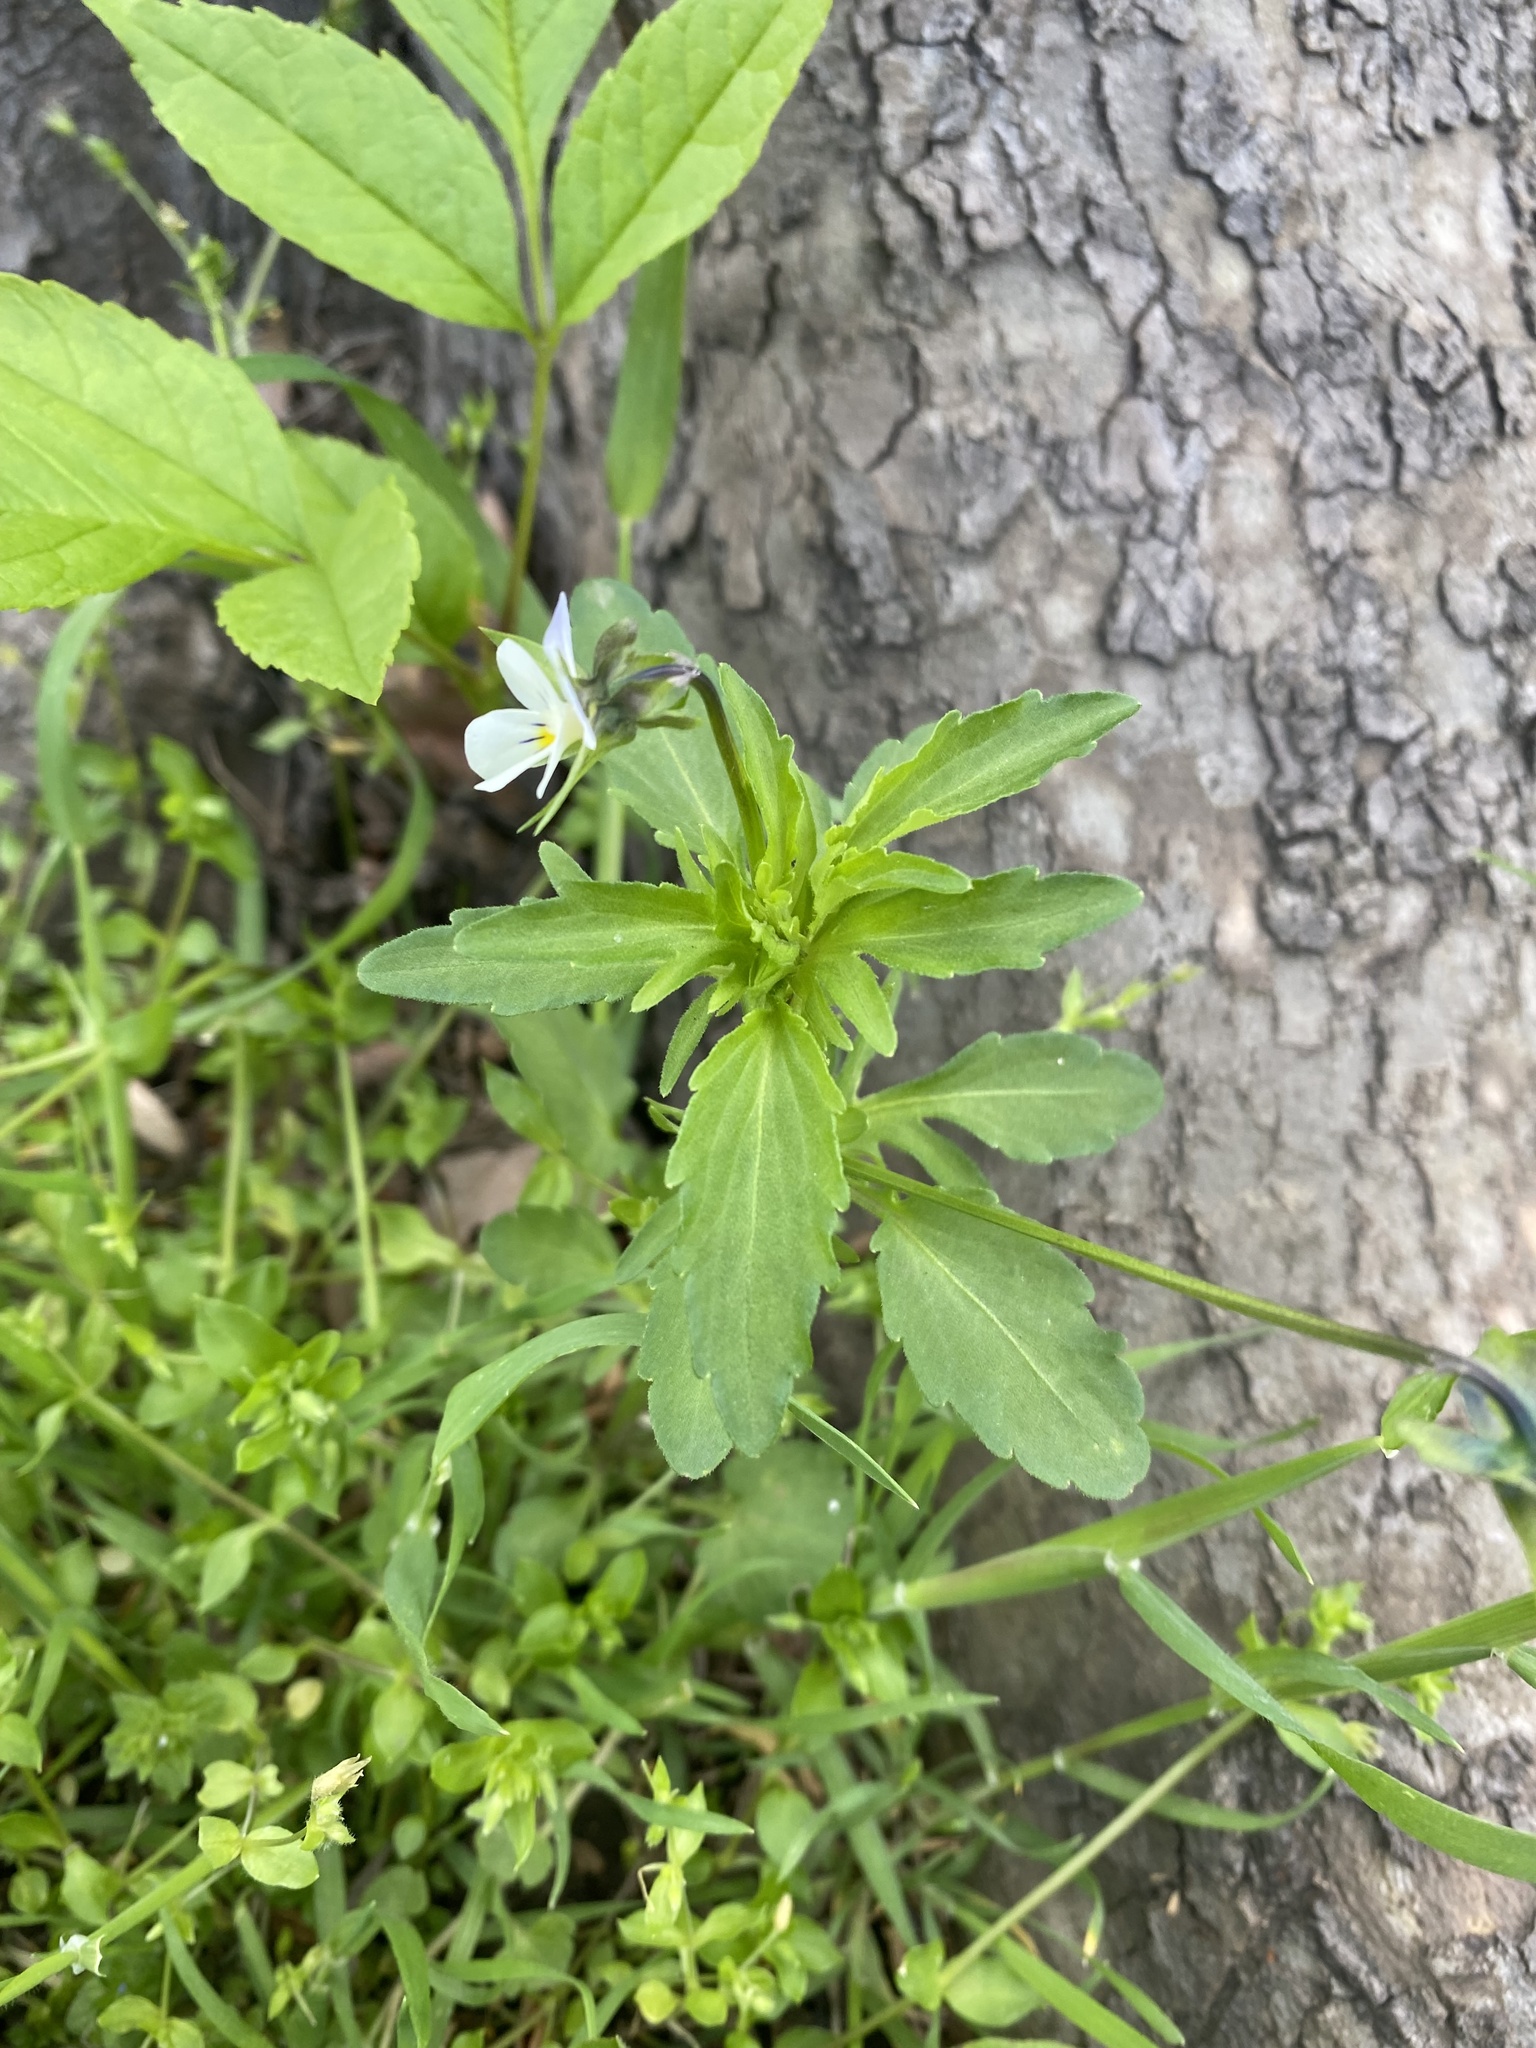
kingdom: Plantae
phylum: Tracheophyta
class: Magnoliopsida
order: Malpighiales
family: Violaceae
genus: Viola
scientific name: Viola arvensis
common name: Field pansy
